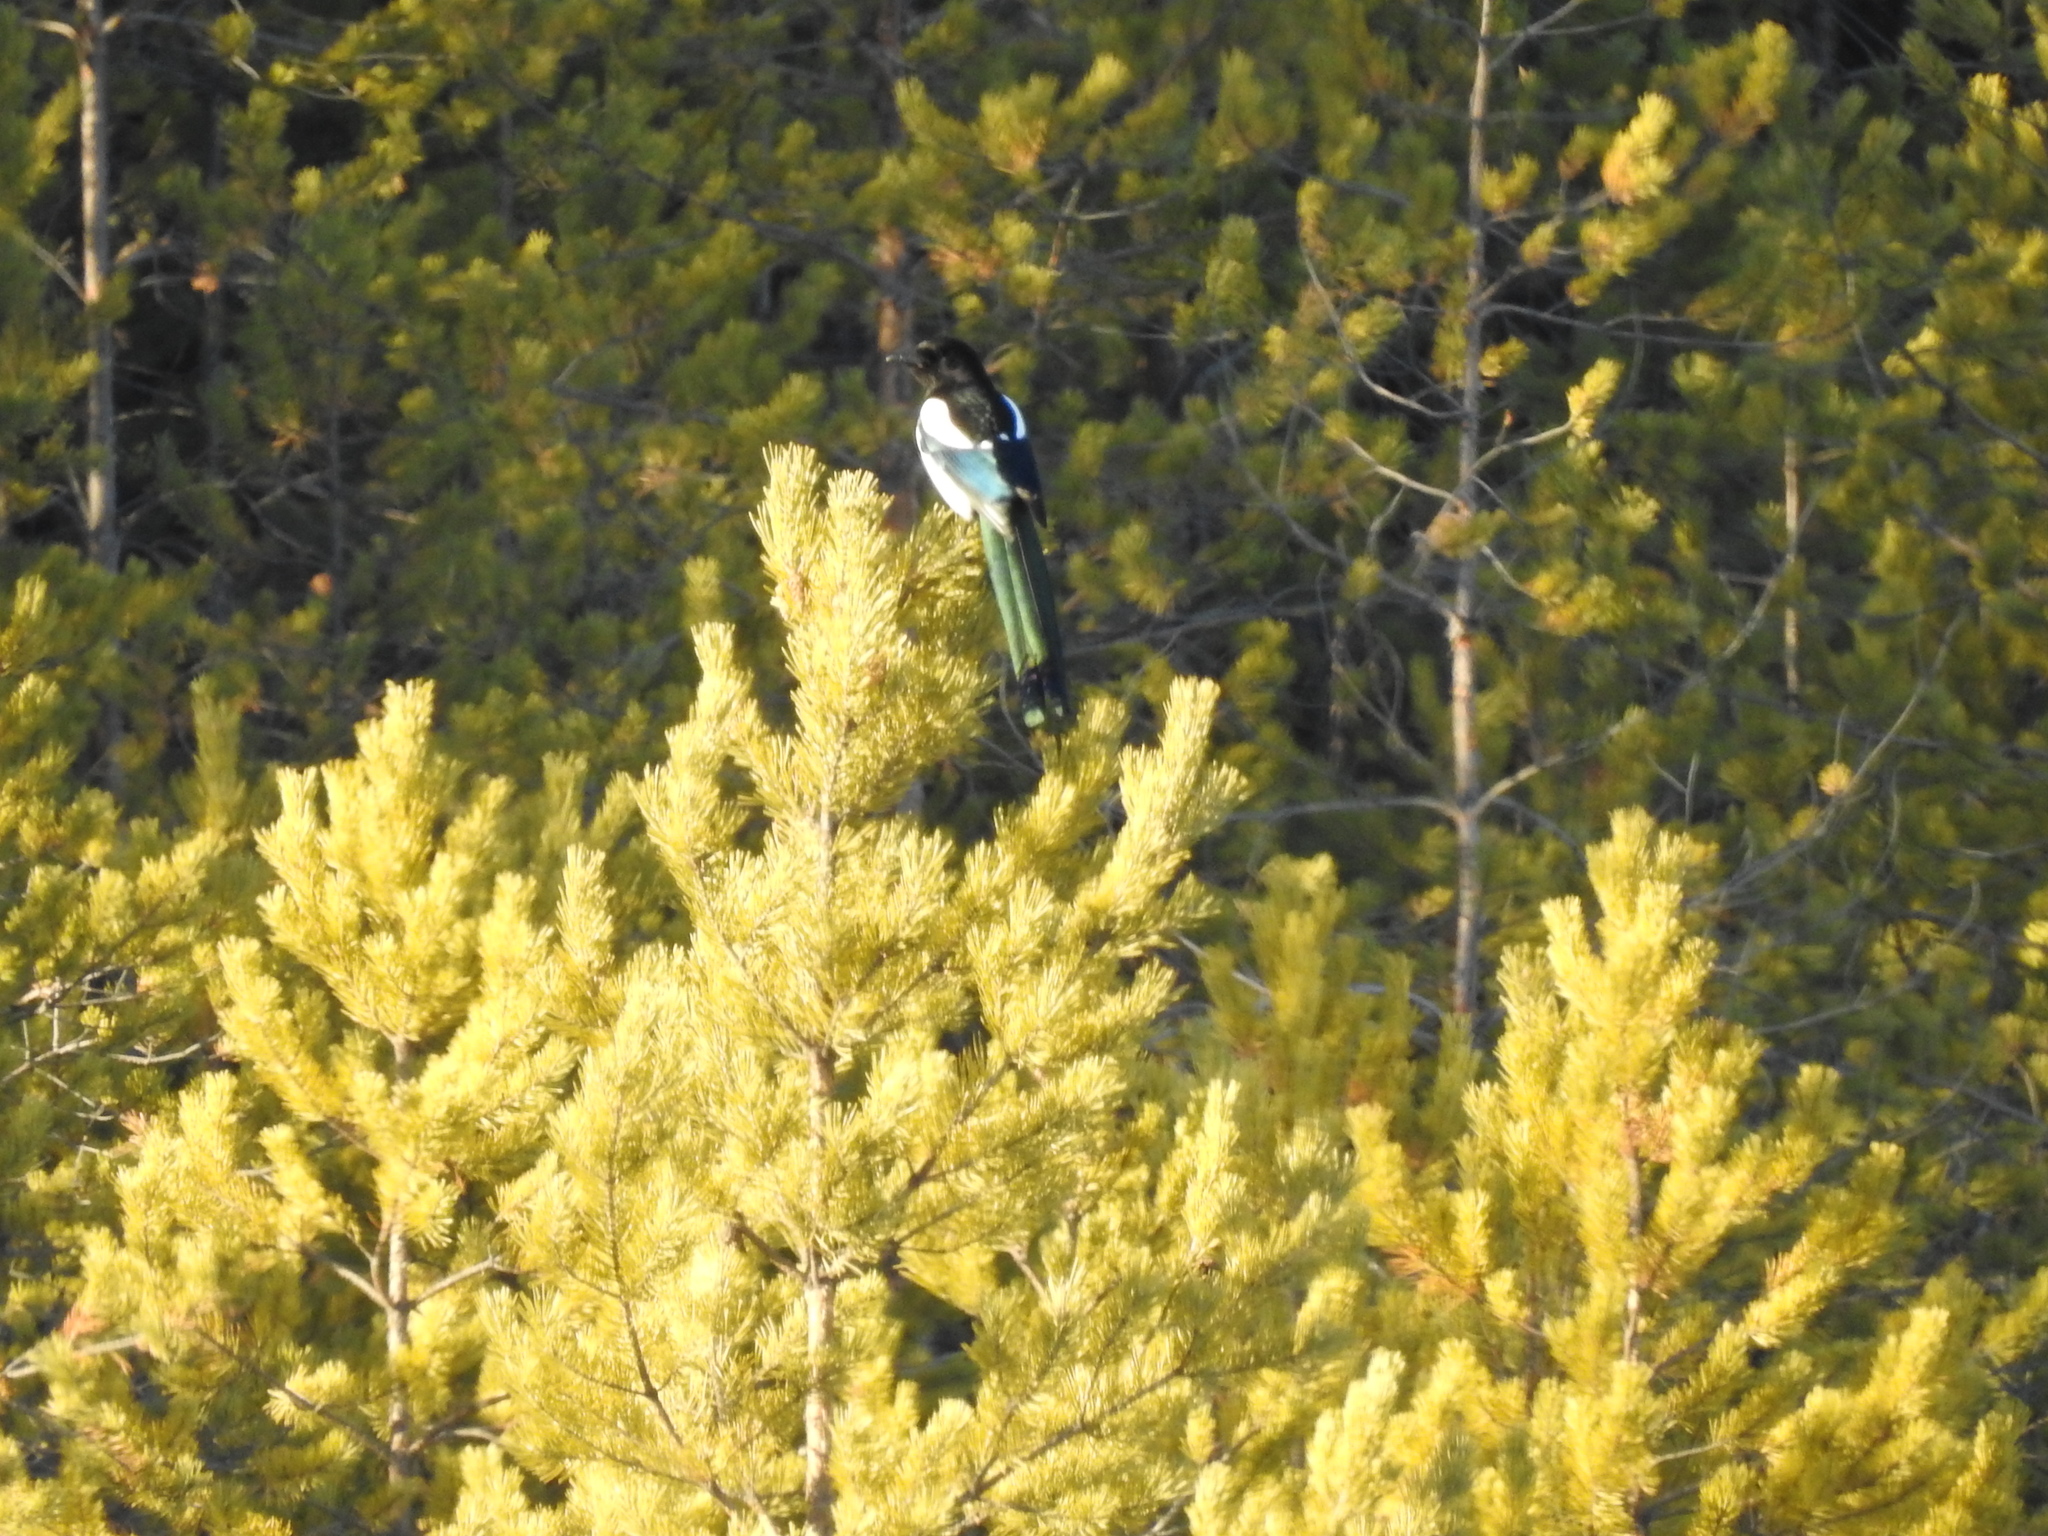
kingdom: Animalia
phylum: Chordata
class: Aves
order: Passeriformes
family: Corvidae
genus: Pica
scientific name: Pica pica
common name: Eurasian magpie
